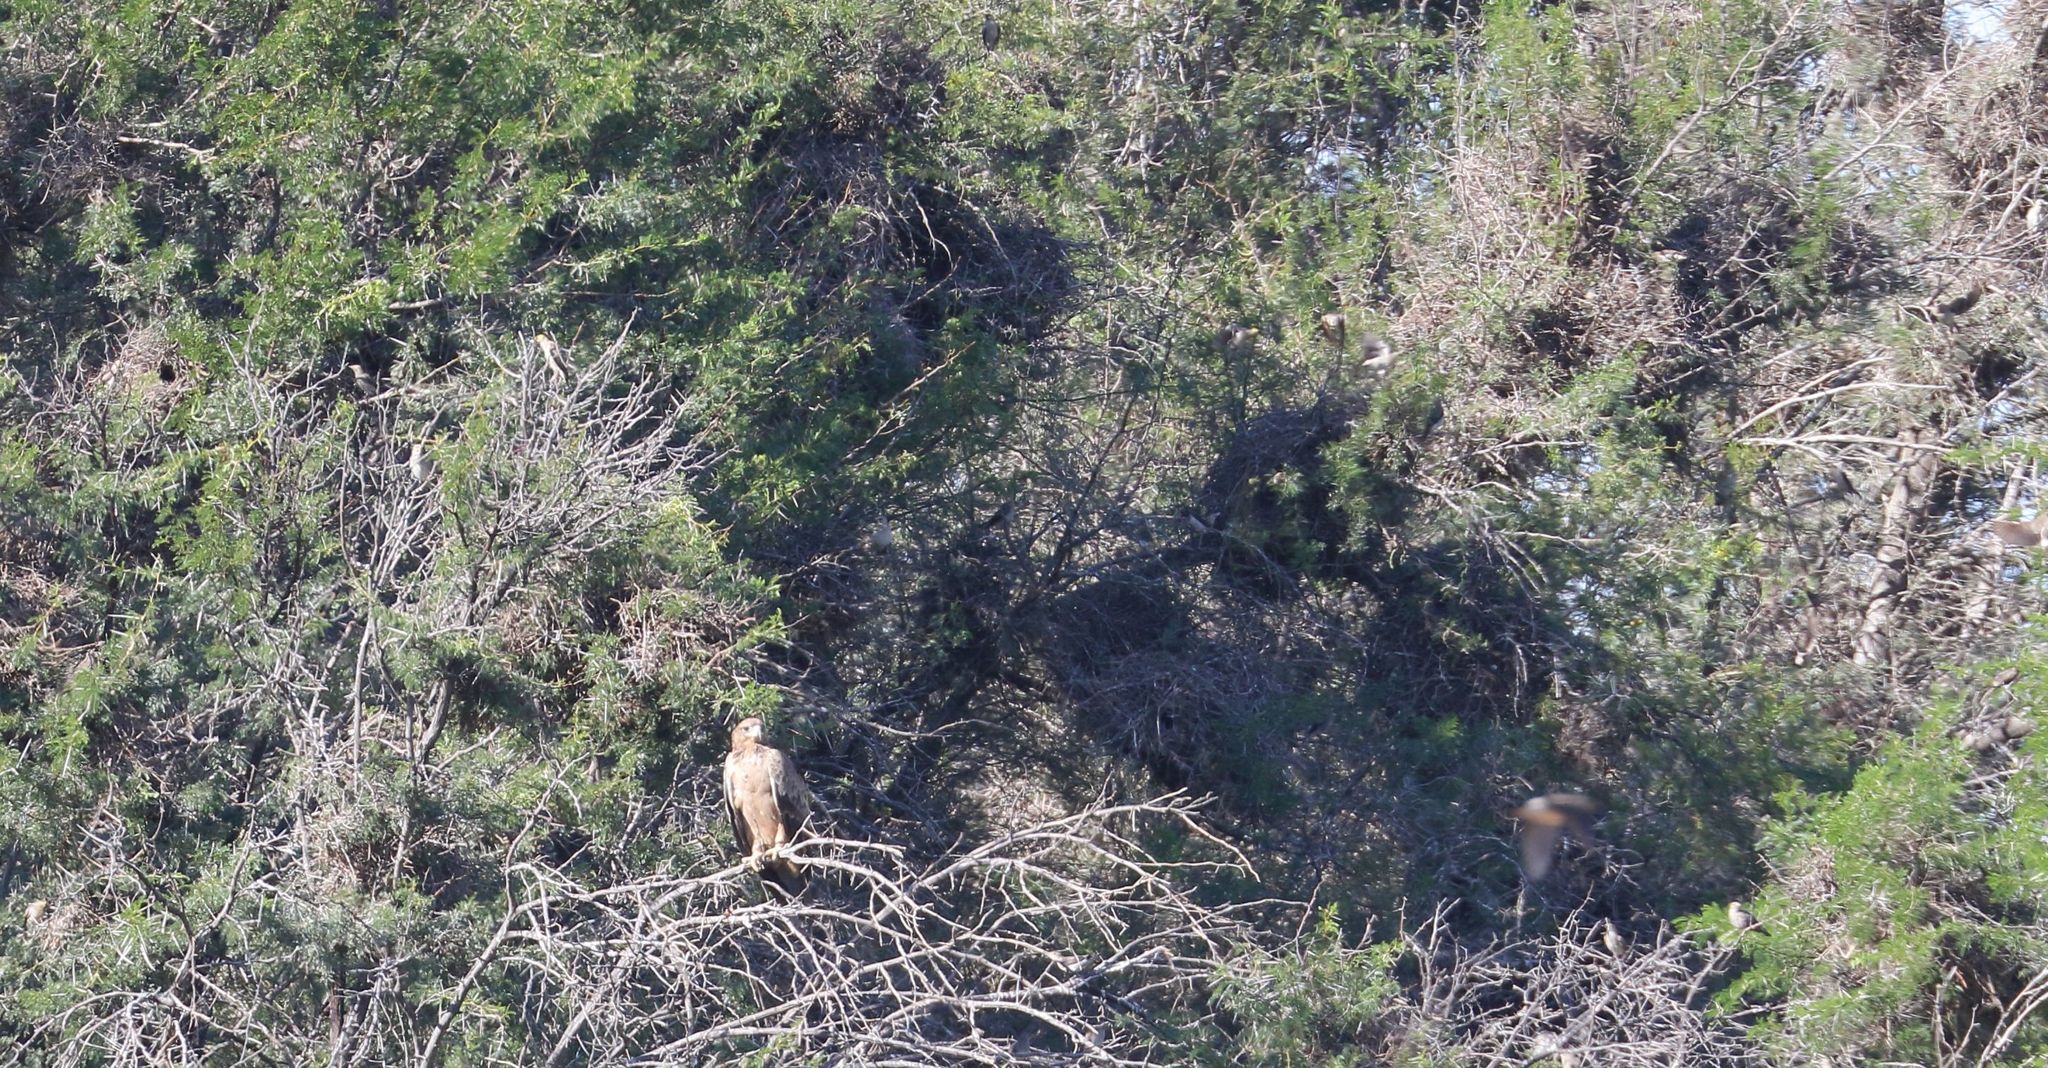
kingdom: Animalia
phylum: Chordata
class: Aves
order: Accipitriformes
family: Accipitridae
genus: Aquila
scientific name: Aquila rapax
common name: Tawny eagle
